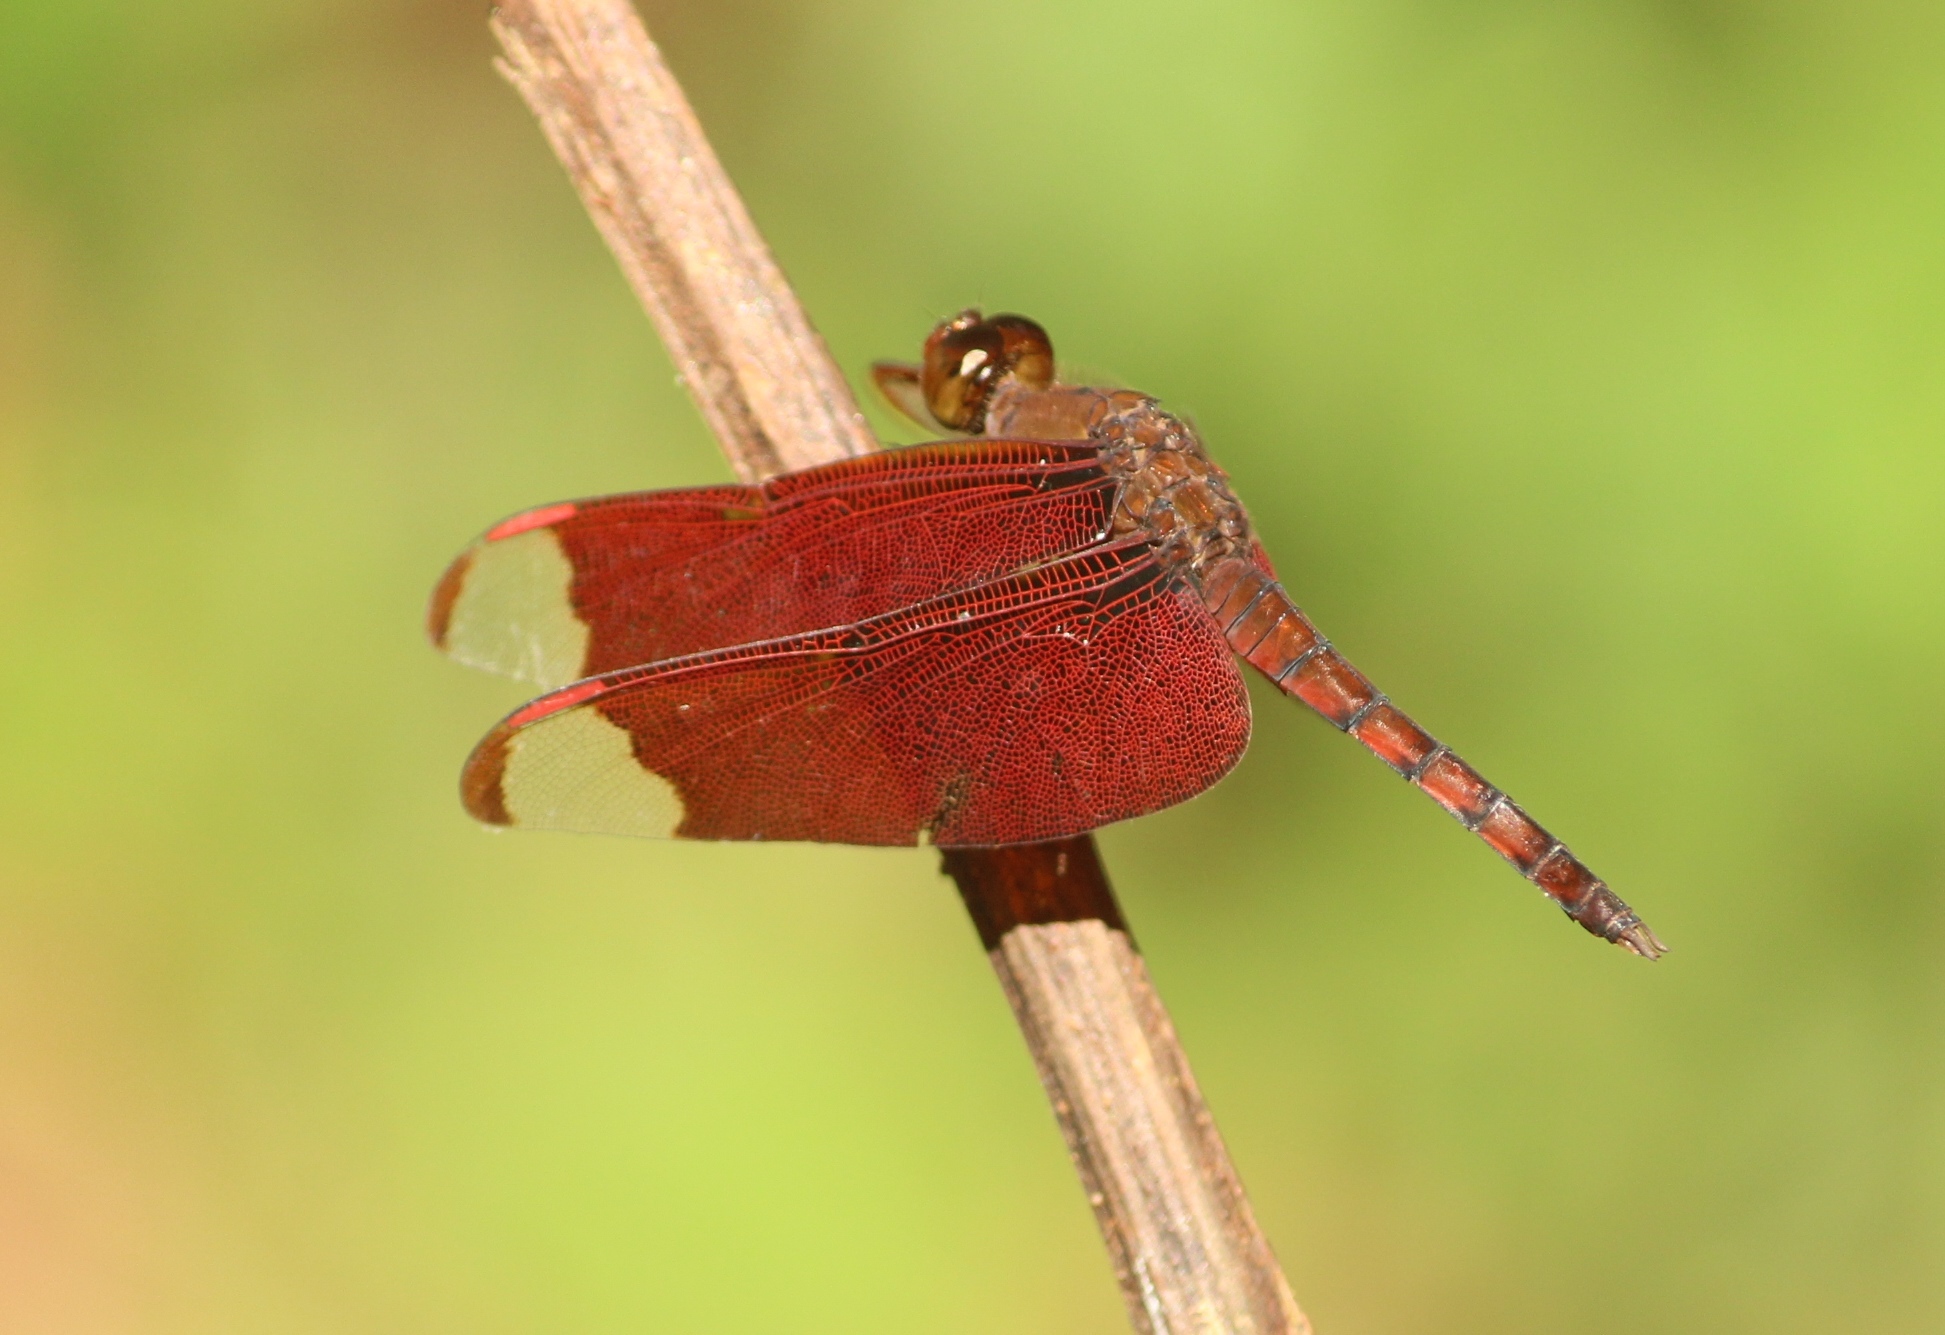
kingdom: Animalia
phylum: Arthropoda
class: Insecta
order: Odonata
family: Libellulidae
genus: Neurothemis
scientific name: Neurothemis fulvia
